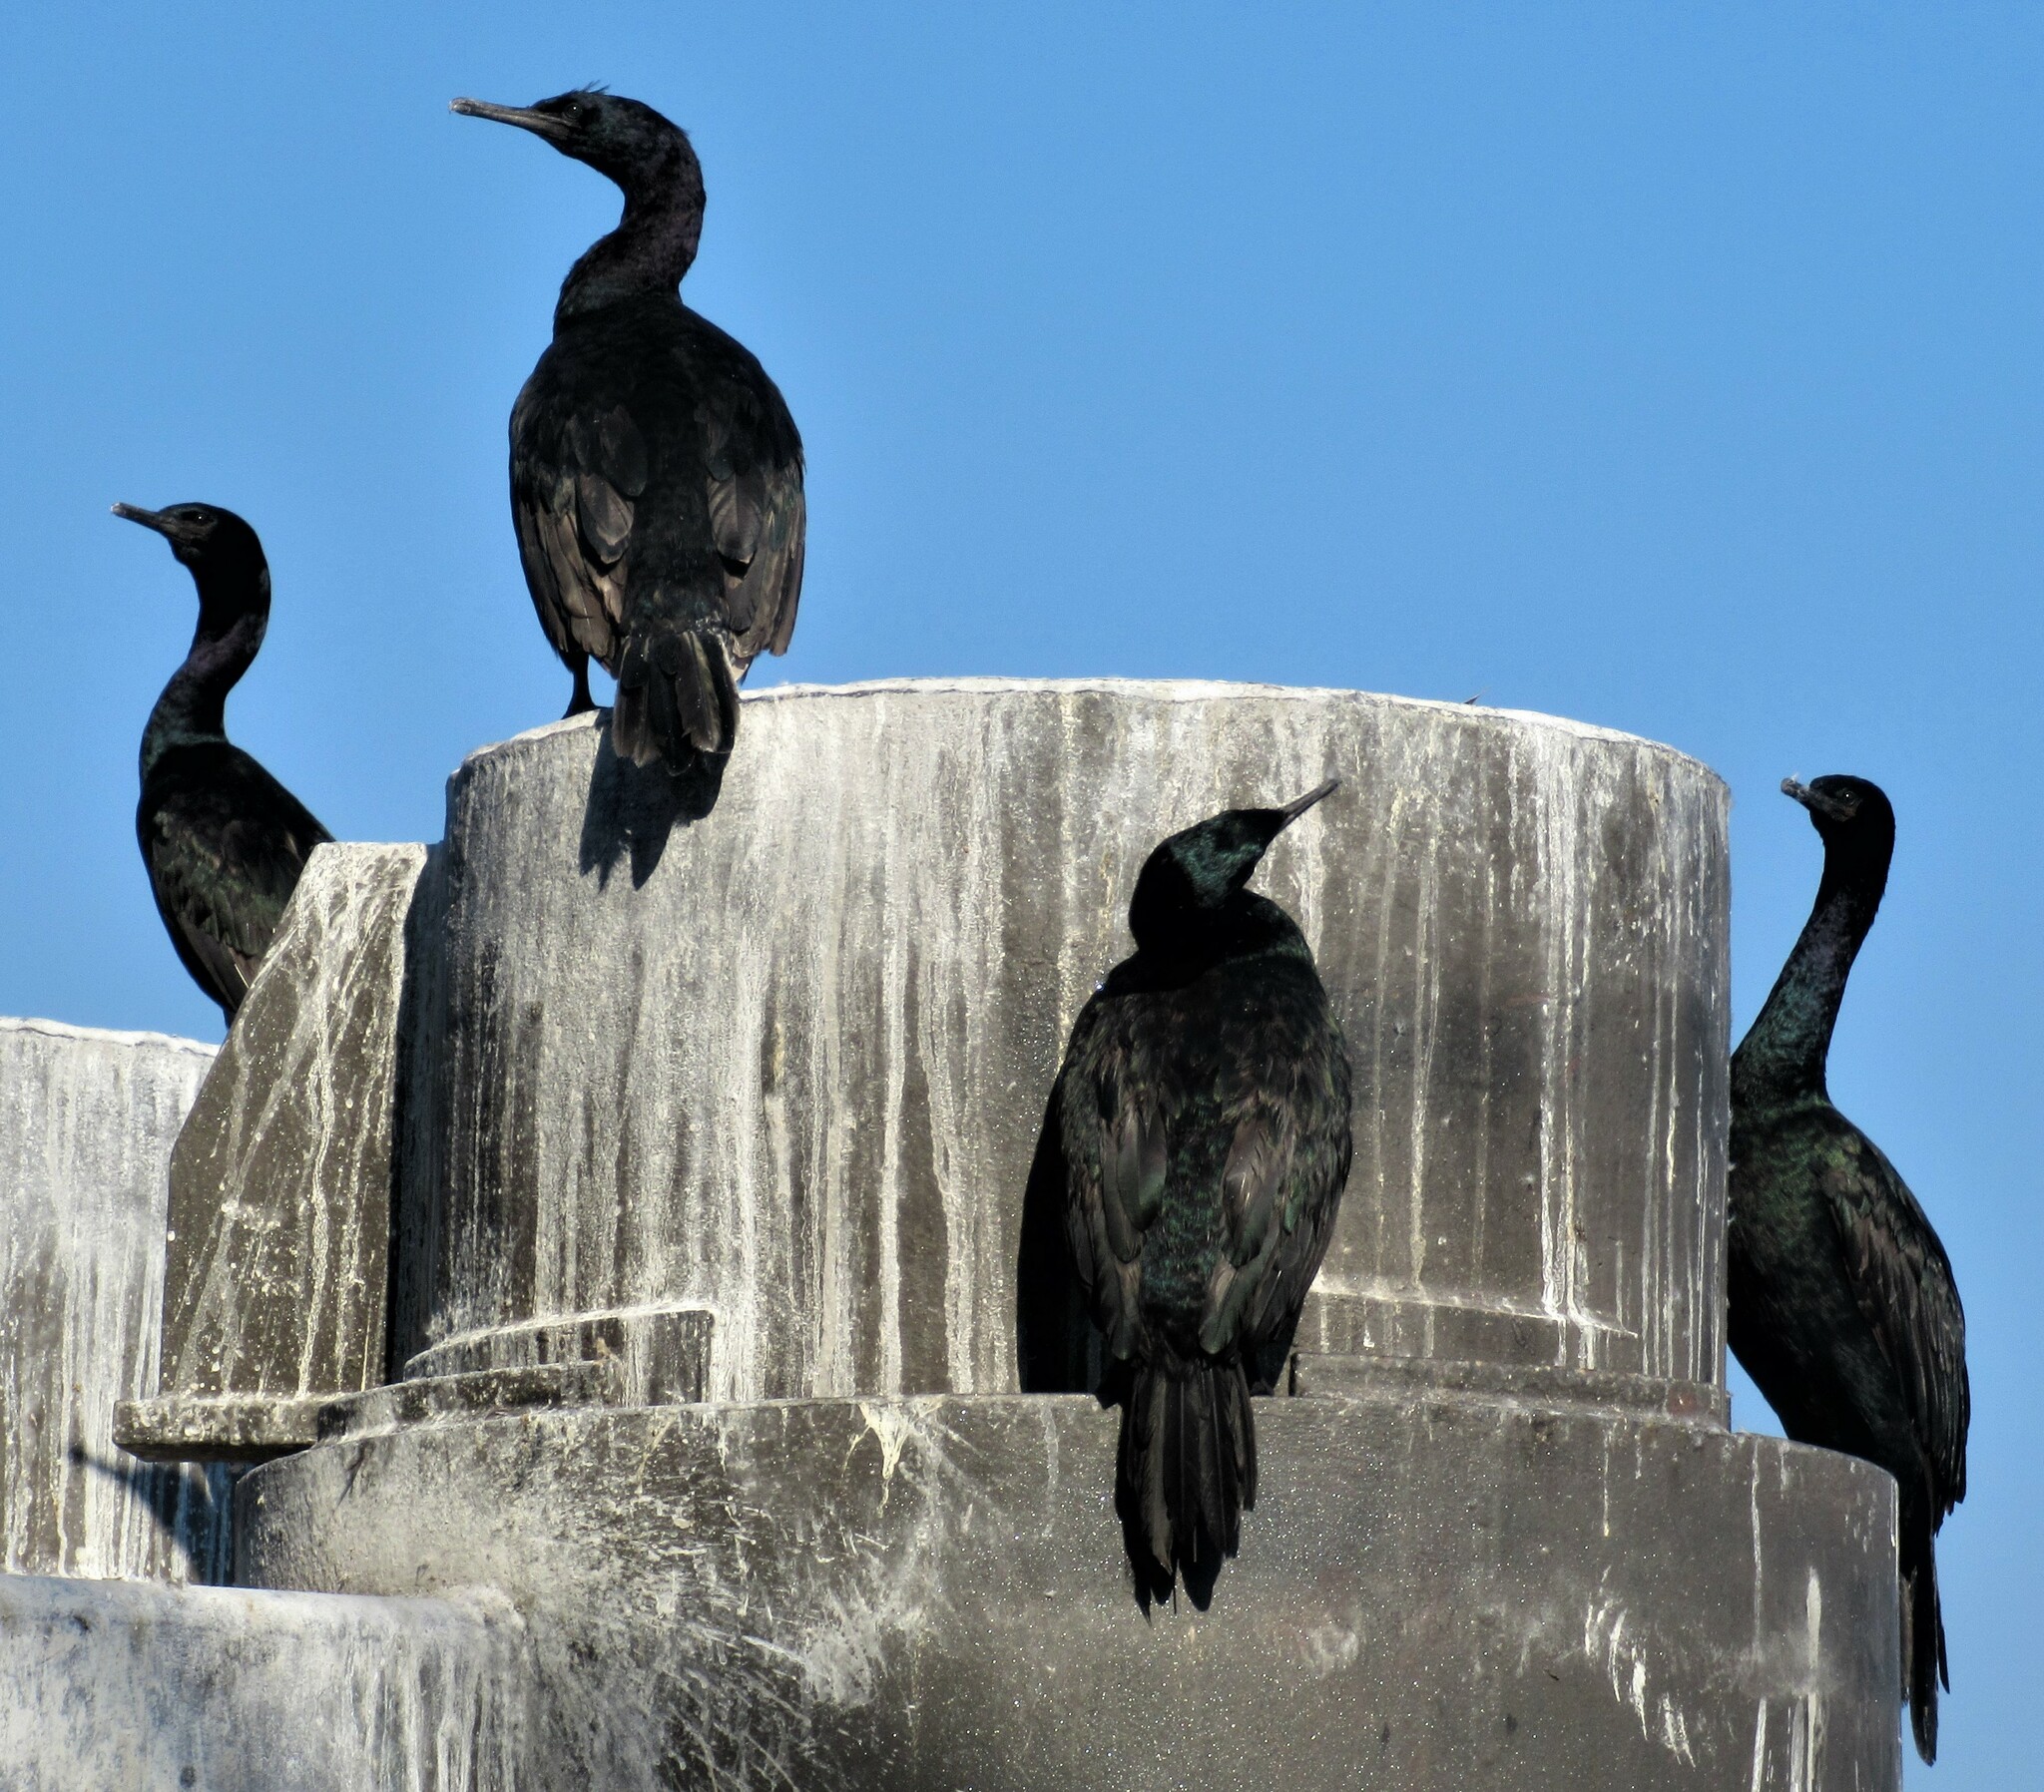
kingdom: Animalia
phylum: Chordata
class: Aves
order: Suliformes
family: Phalacrocoracidae
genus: Phalacrocorax
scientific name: Phalacrocorax pelagicus
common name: Pelagic cormorant
